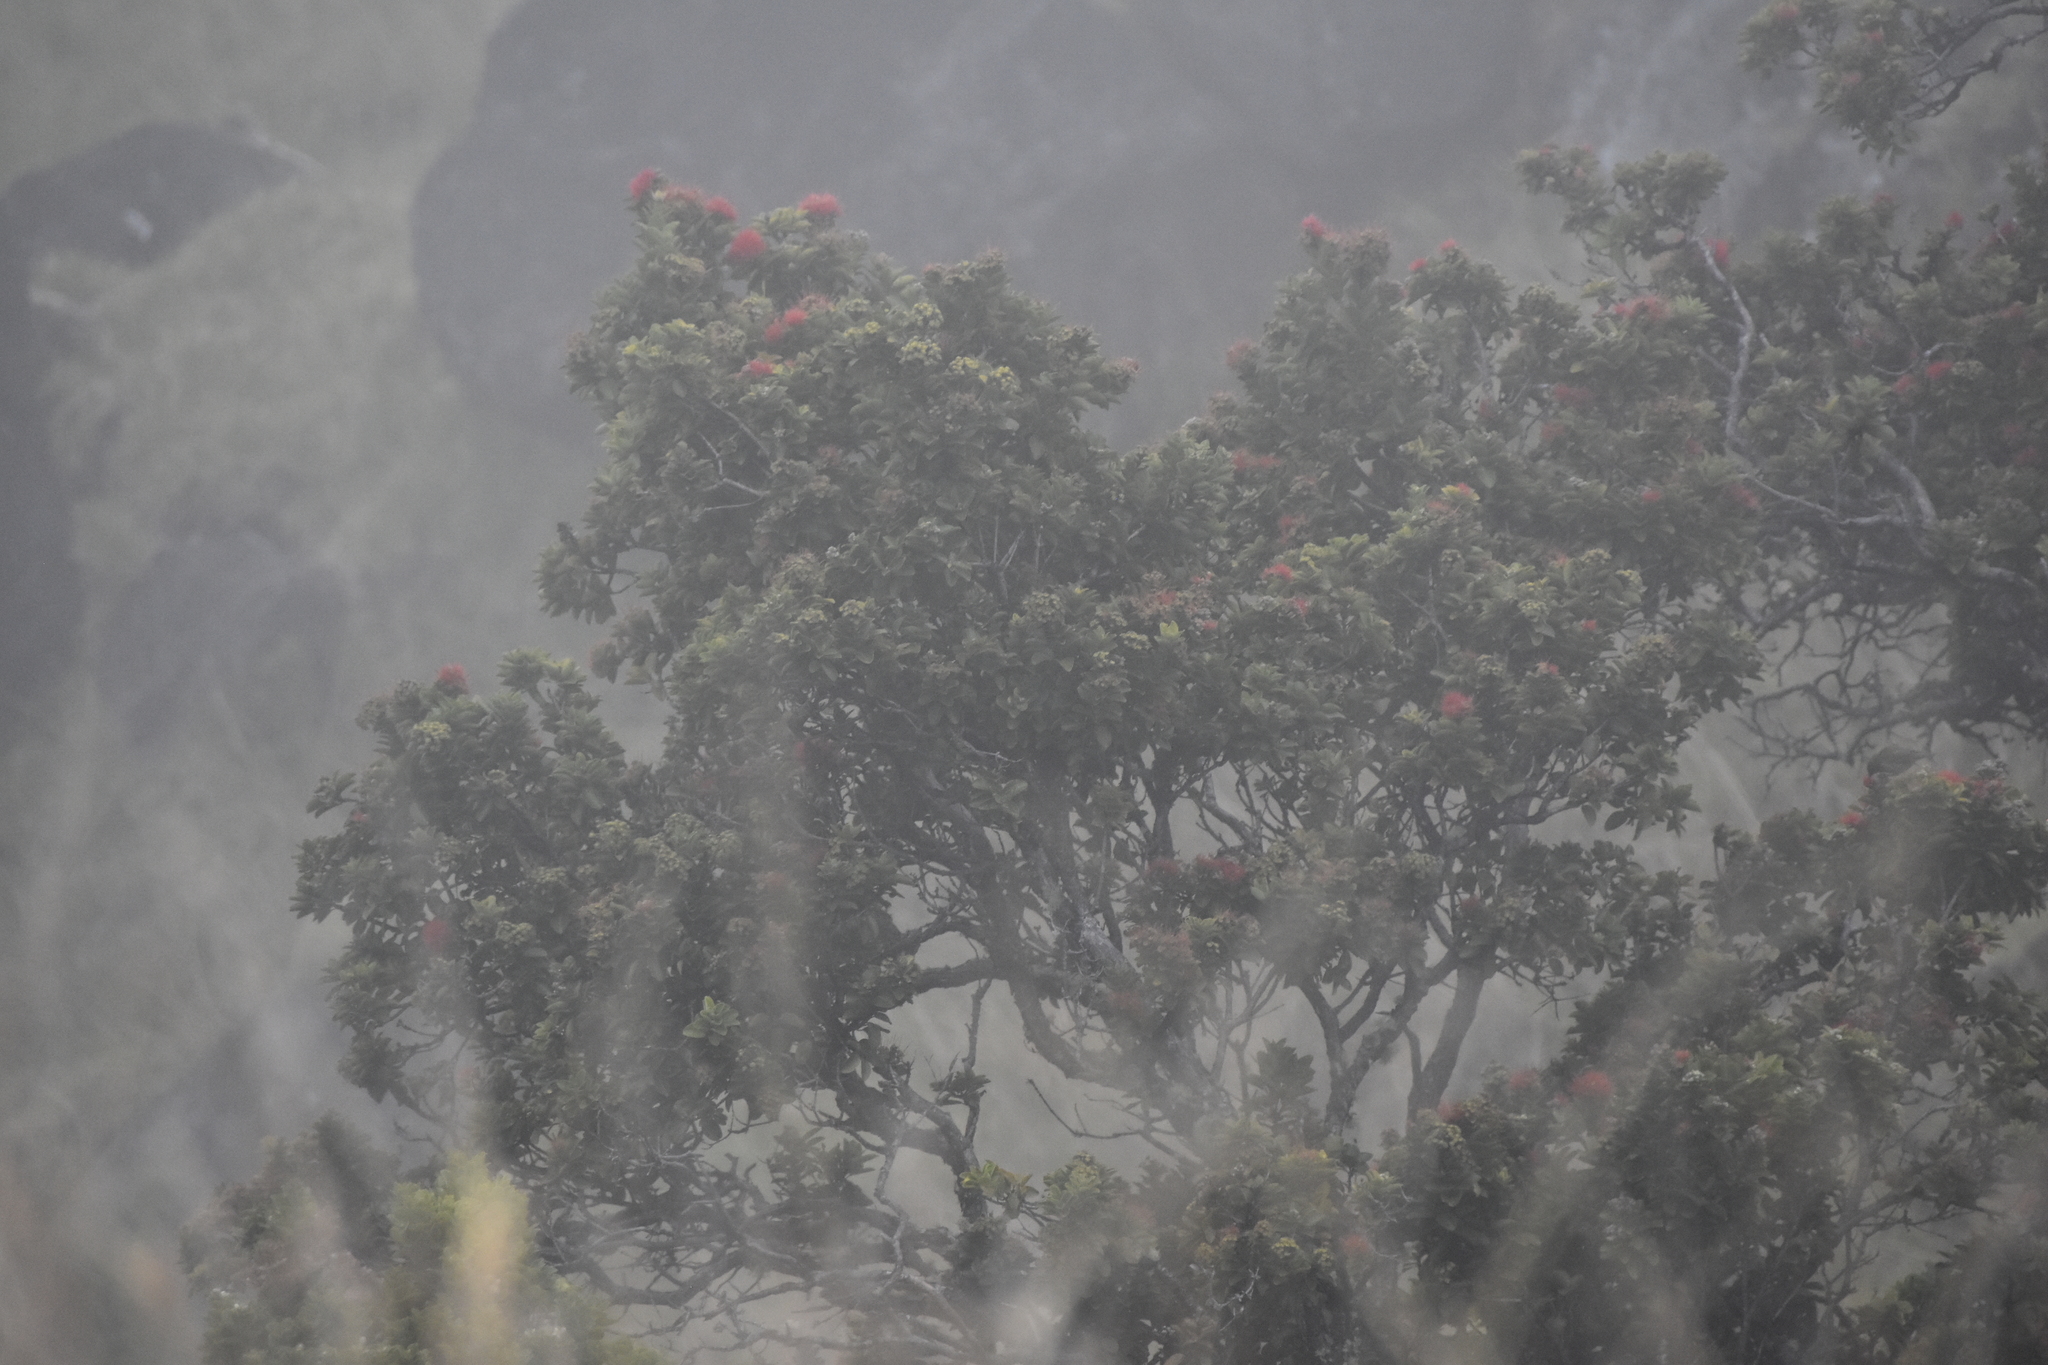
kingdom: Plantae
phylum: Tracheophyta
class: Magnoliopsida
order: Myrtales
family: Myrtaceae
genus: Metrosideros
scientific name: Metrosideros polymorpha
